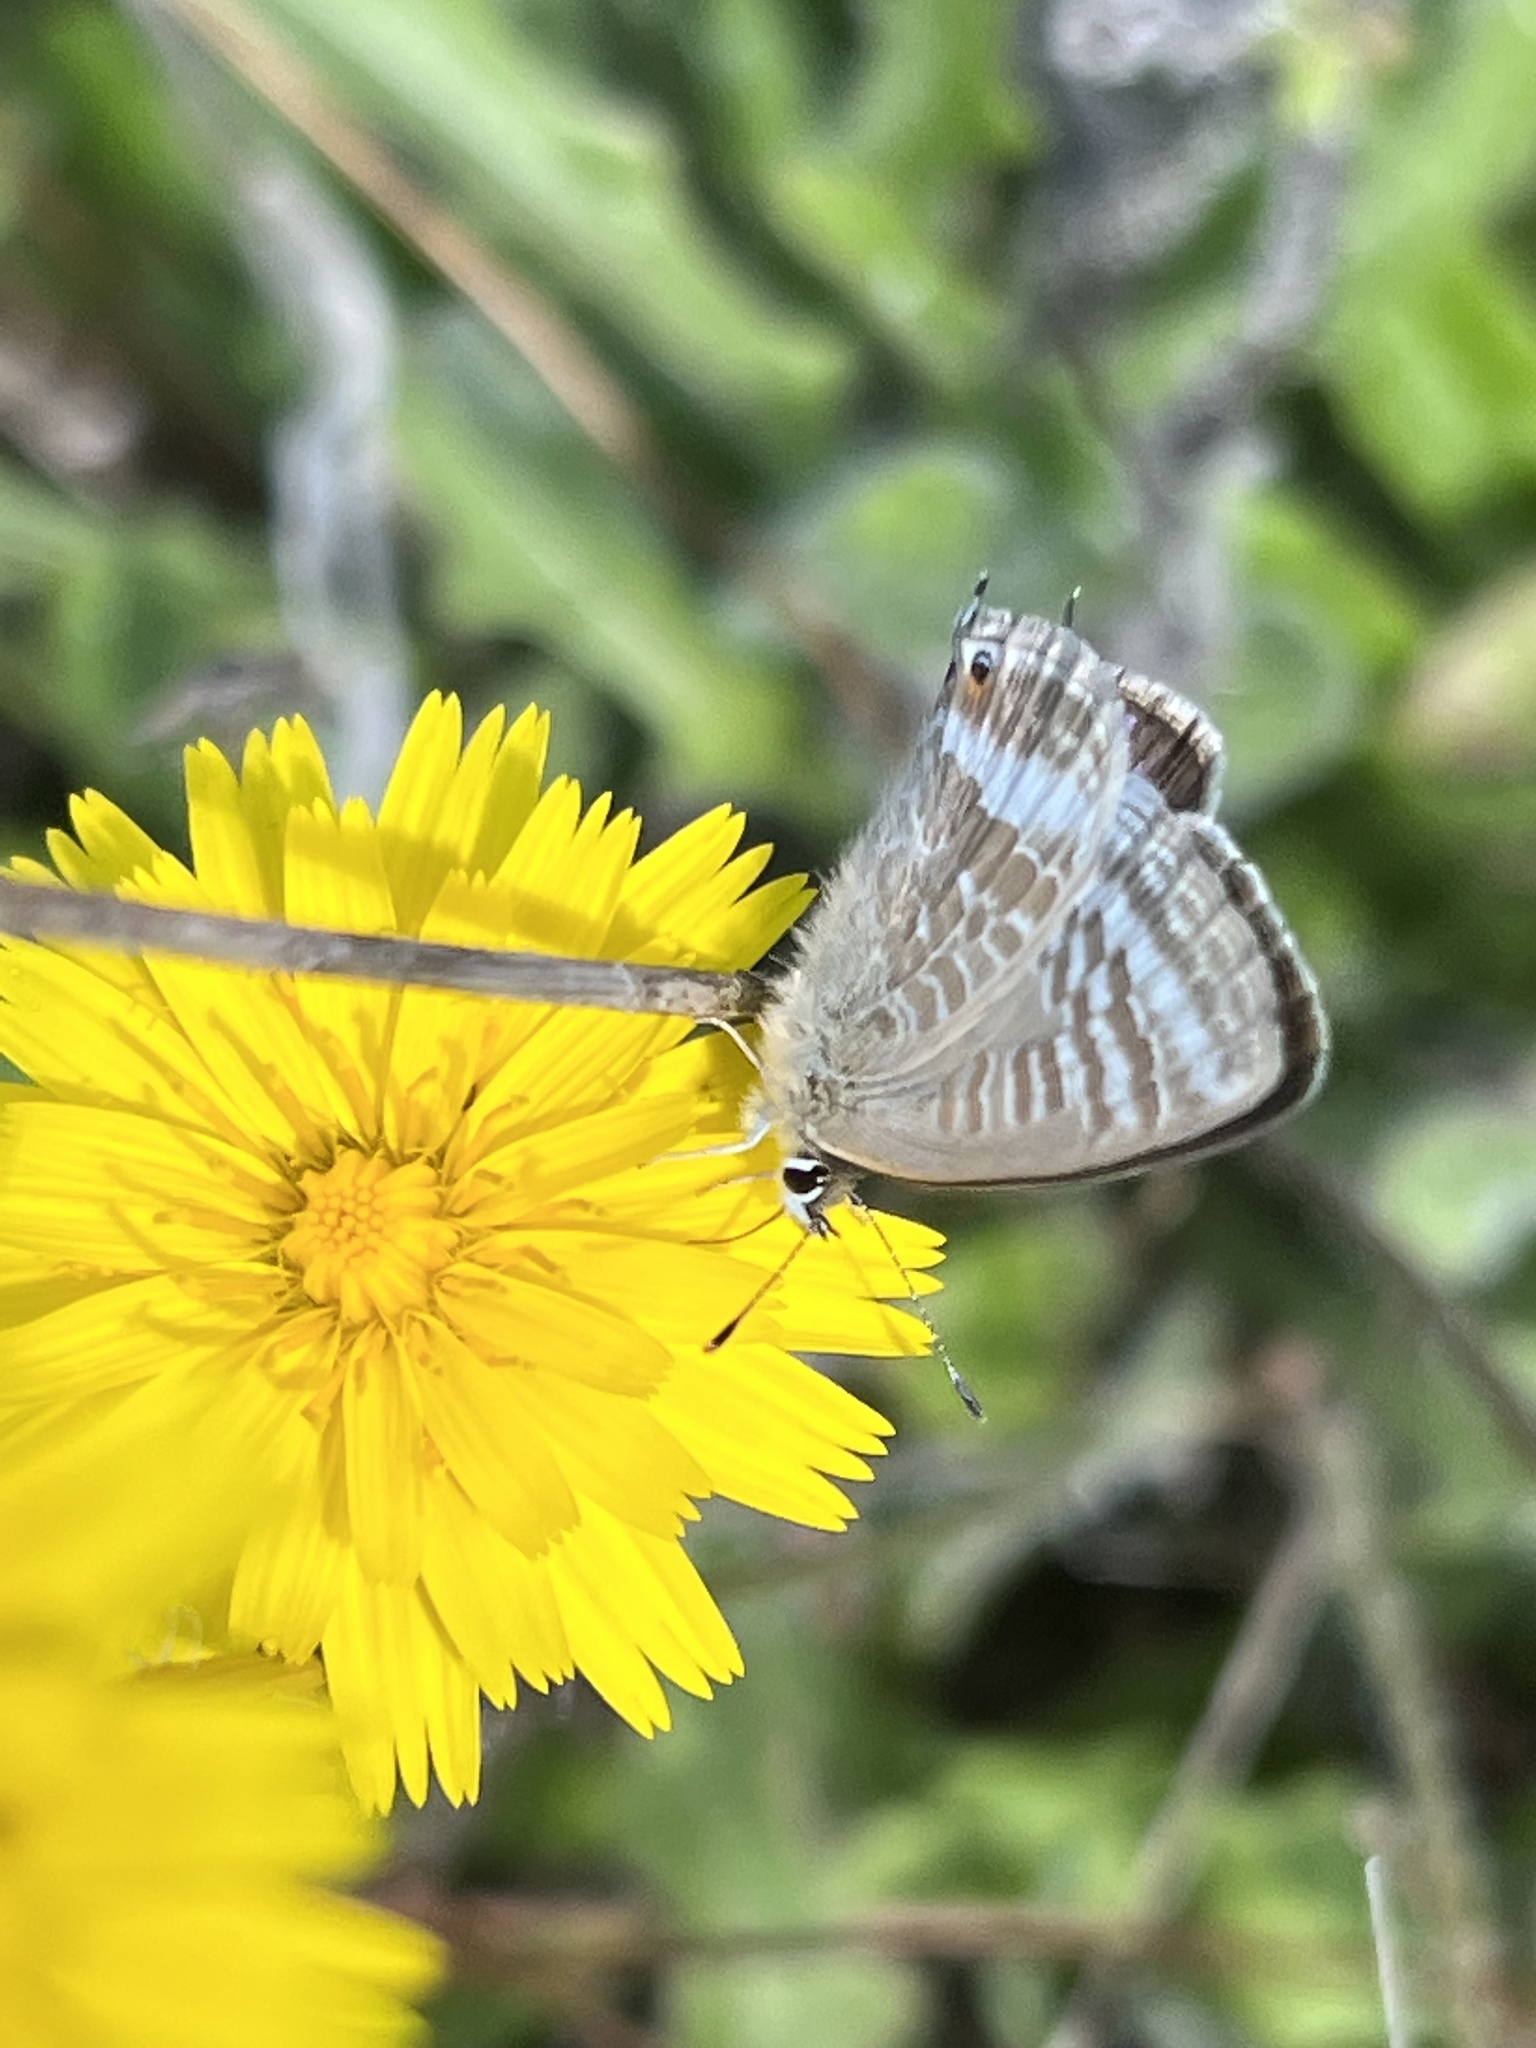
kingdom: Animalia
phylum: Arthropoda
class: Insecta
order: Lepidoptera
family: Lycaenidae
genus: Lampides
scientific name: Lampides boeticus
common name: Long-tailed blue
